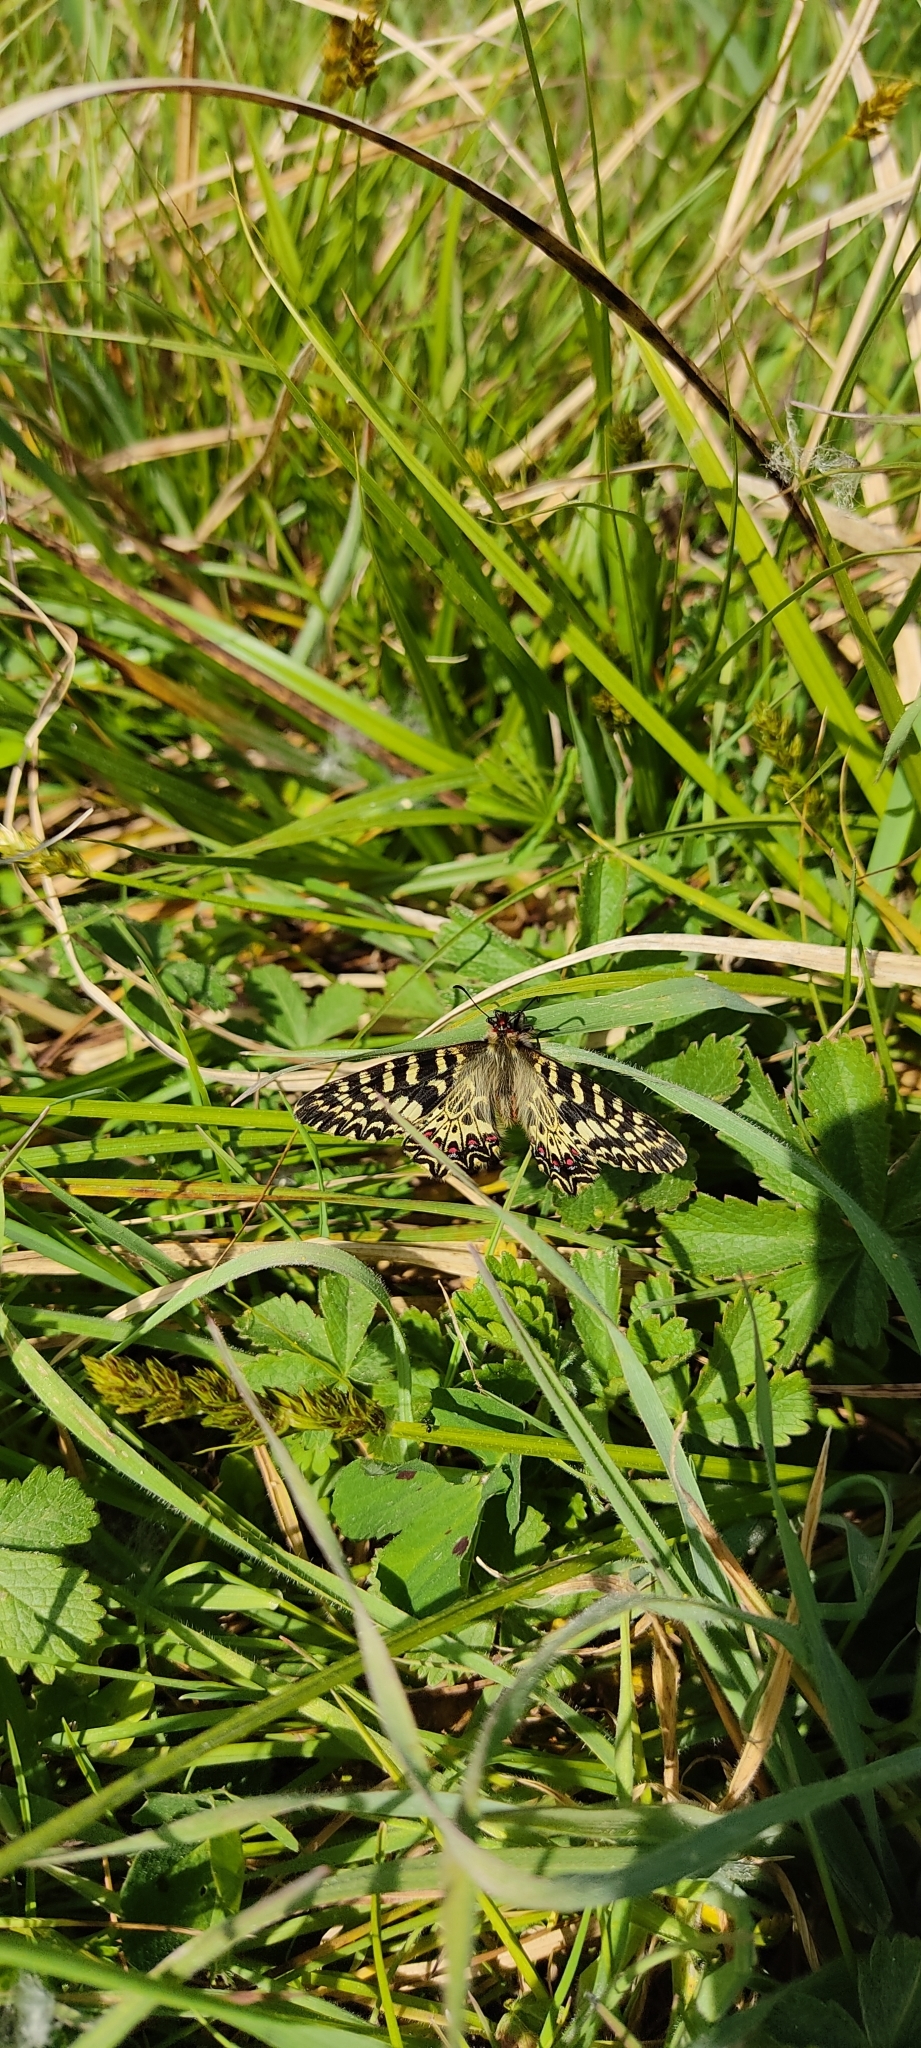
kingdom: Animalia
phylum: Arthropoda
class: Insecta
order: Lepidoptera
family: Papilionidae
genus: Zerynthia
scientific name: Zerynthia polyxena
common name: Southern festoon
